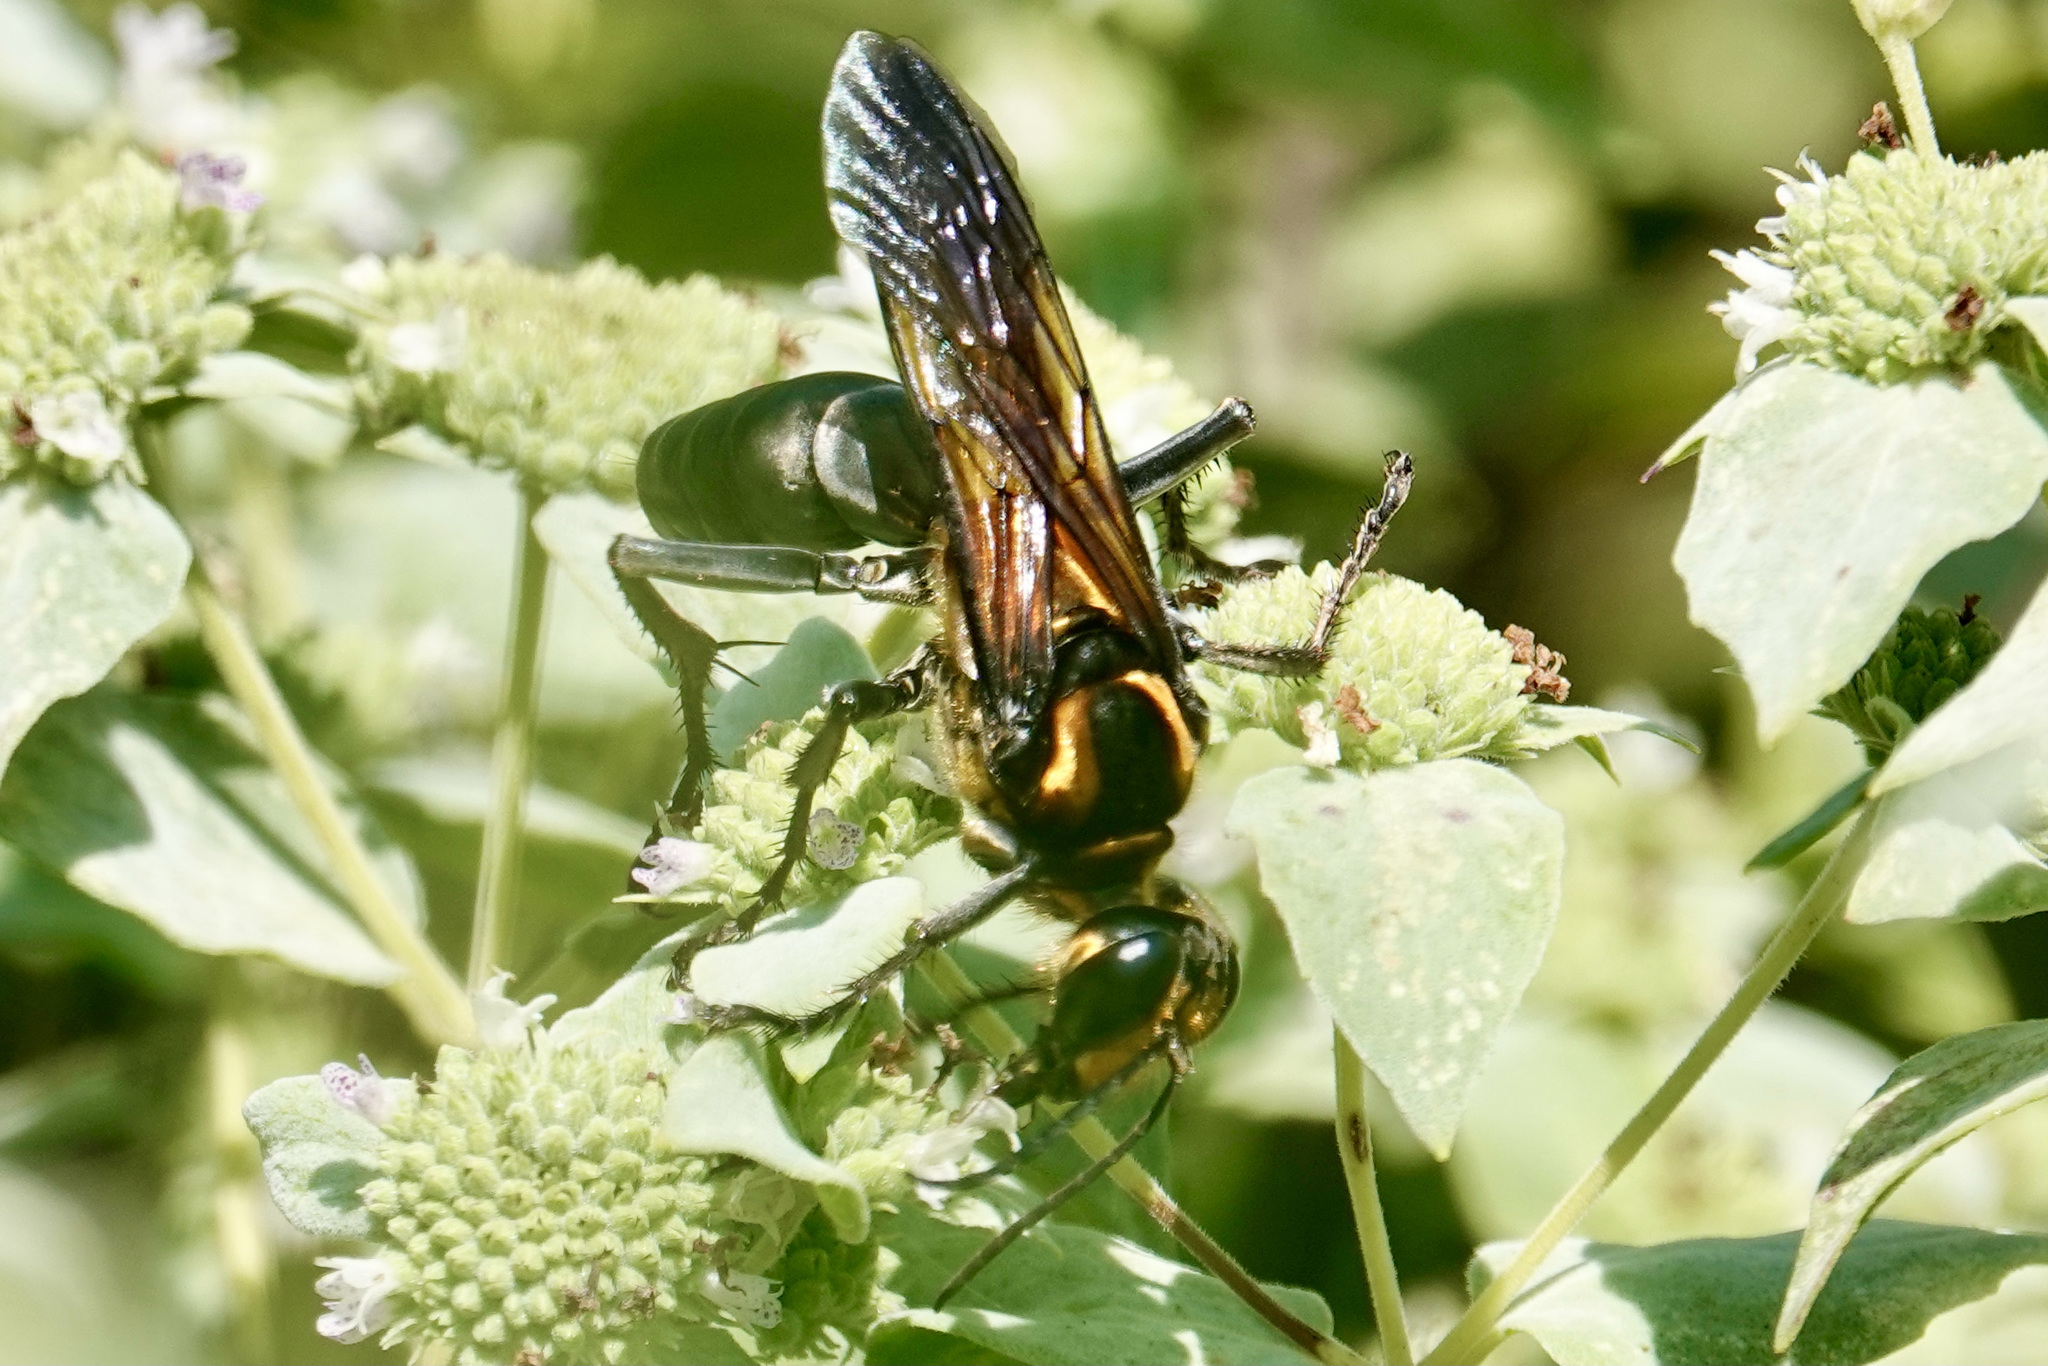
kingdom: Animalia
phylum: Arthropoda
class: Insecta
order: Hymenoptera
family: Sphecidae
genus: Sphex
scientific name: Sphex habenus
